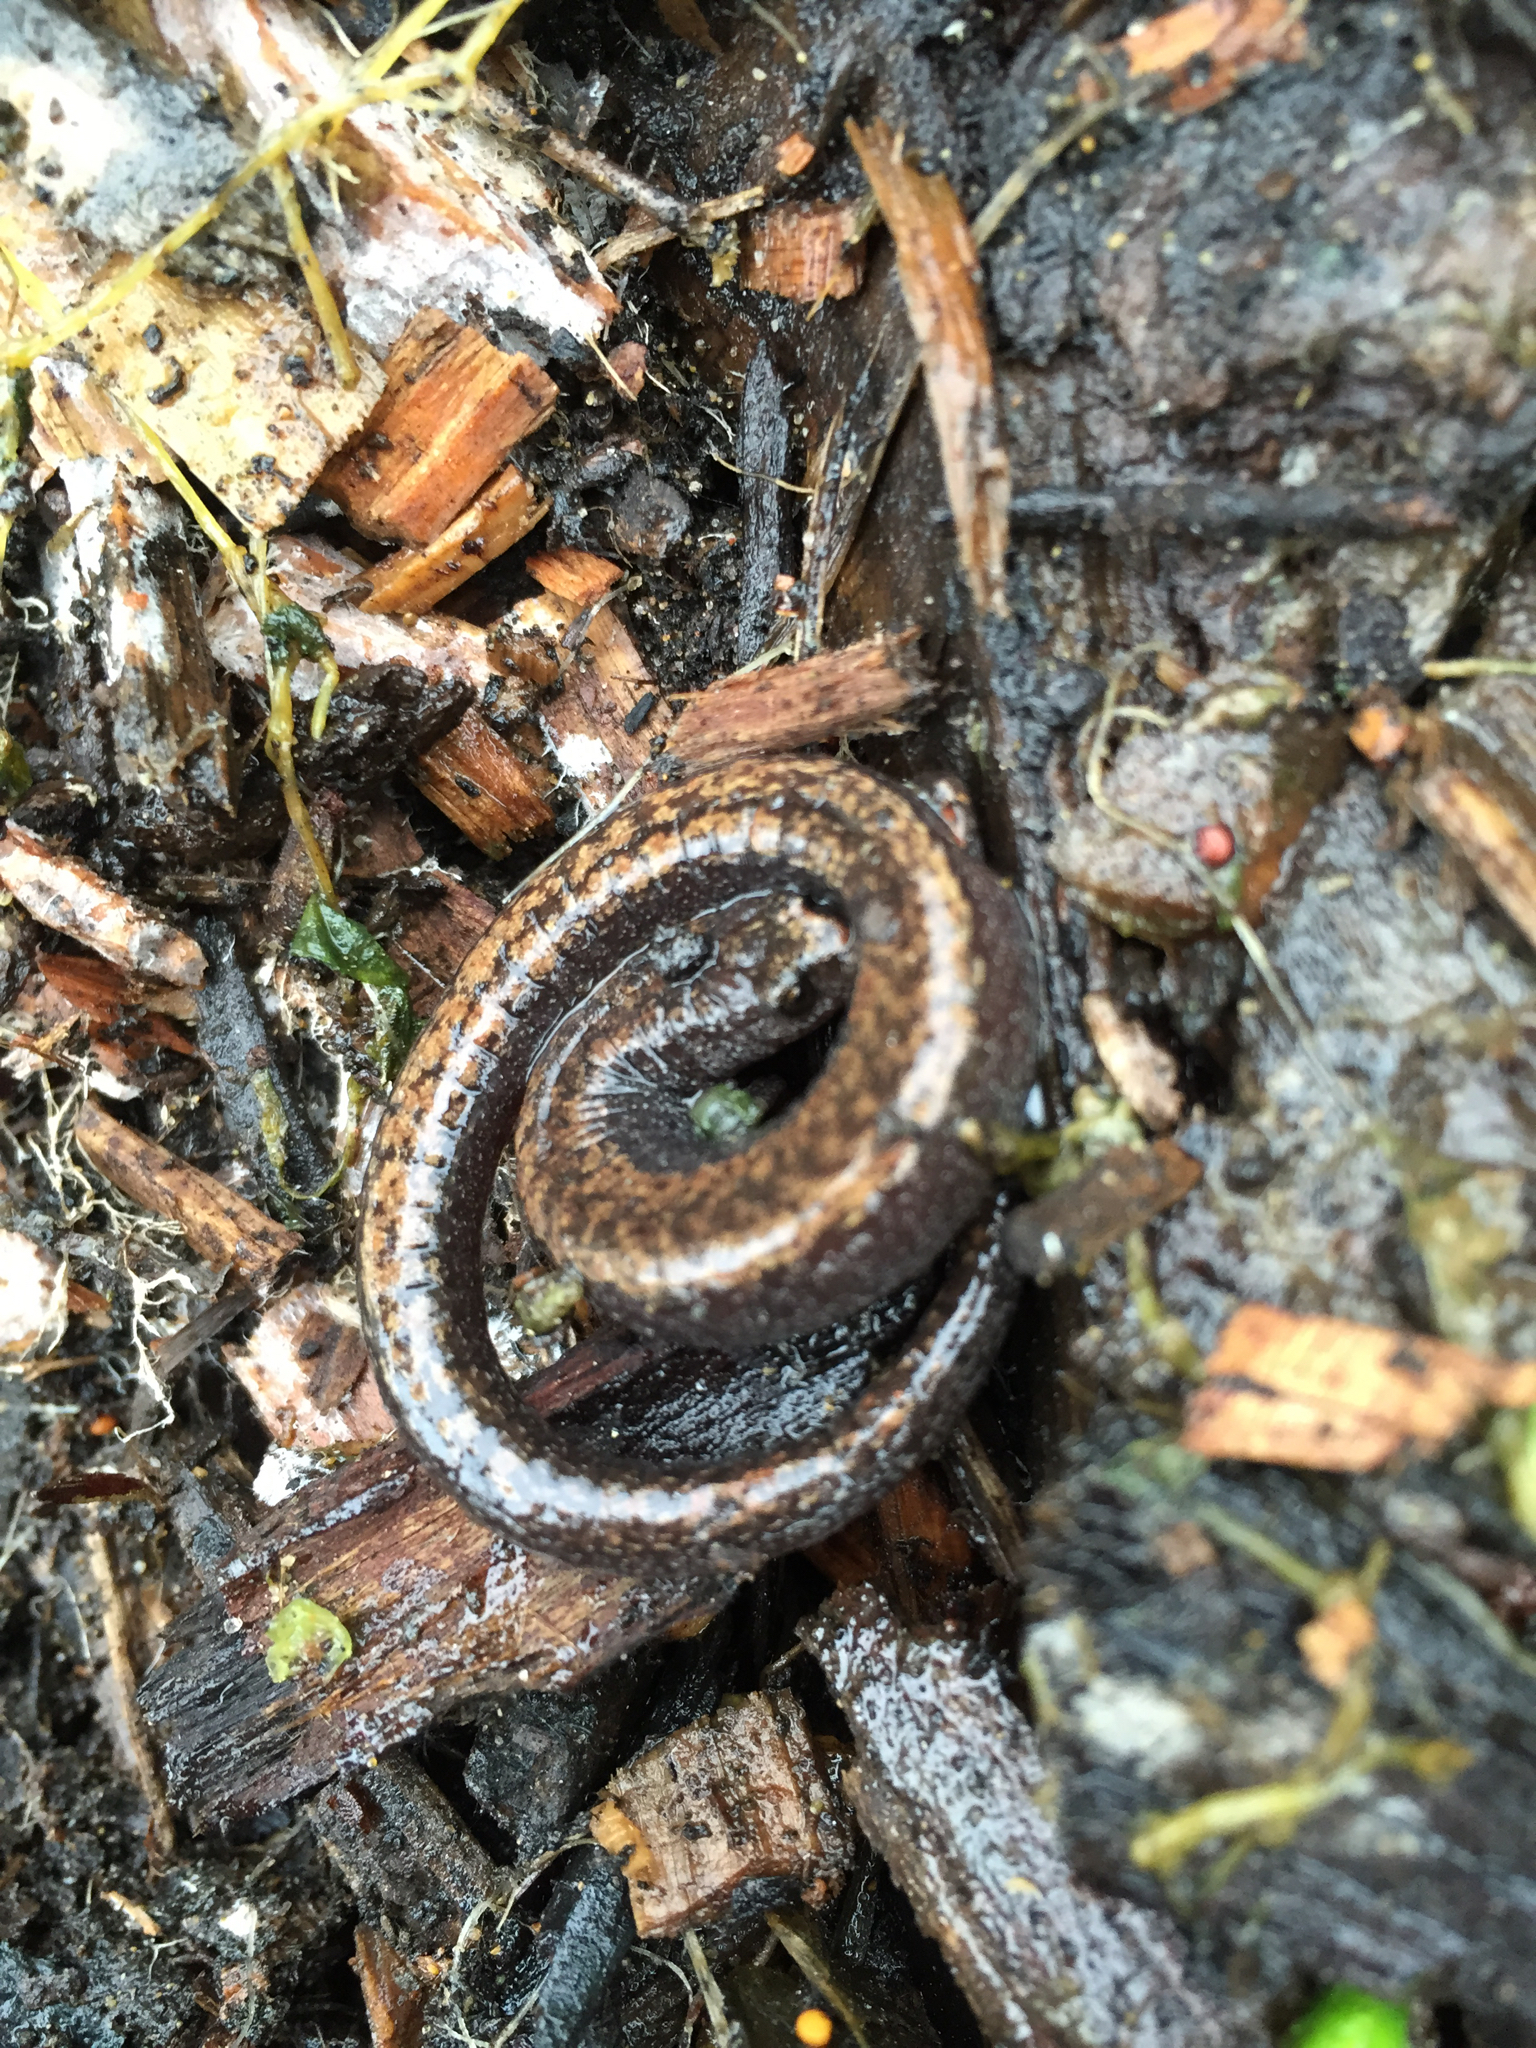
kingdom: Animalia
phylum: Chordata
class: Amphibia
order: Caudata
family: Plethodontidae
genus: Batrachoseps
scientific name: Batrachoseps attenuatus
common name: California slender salamander
